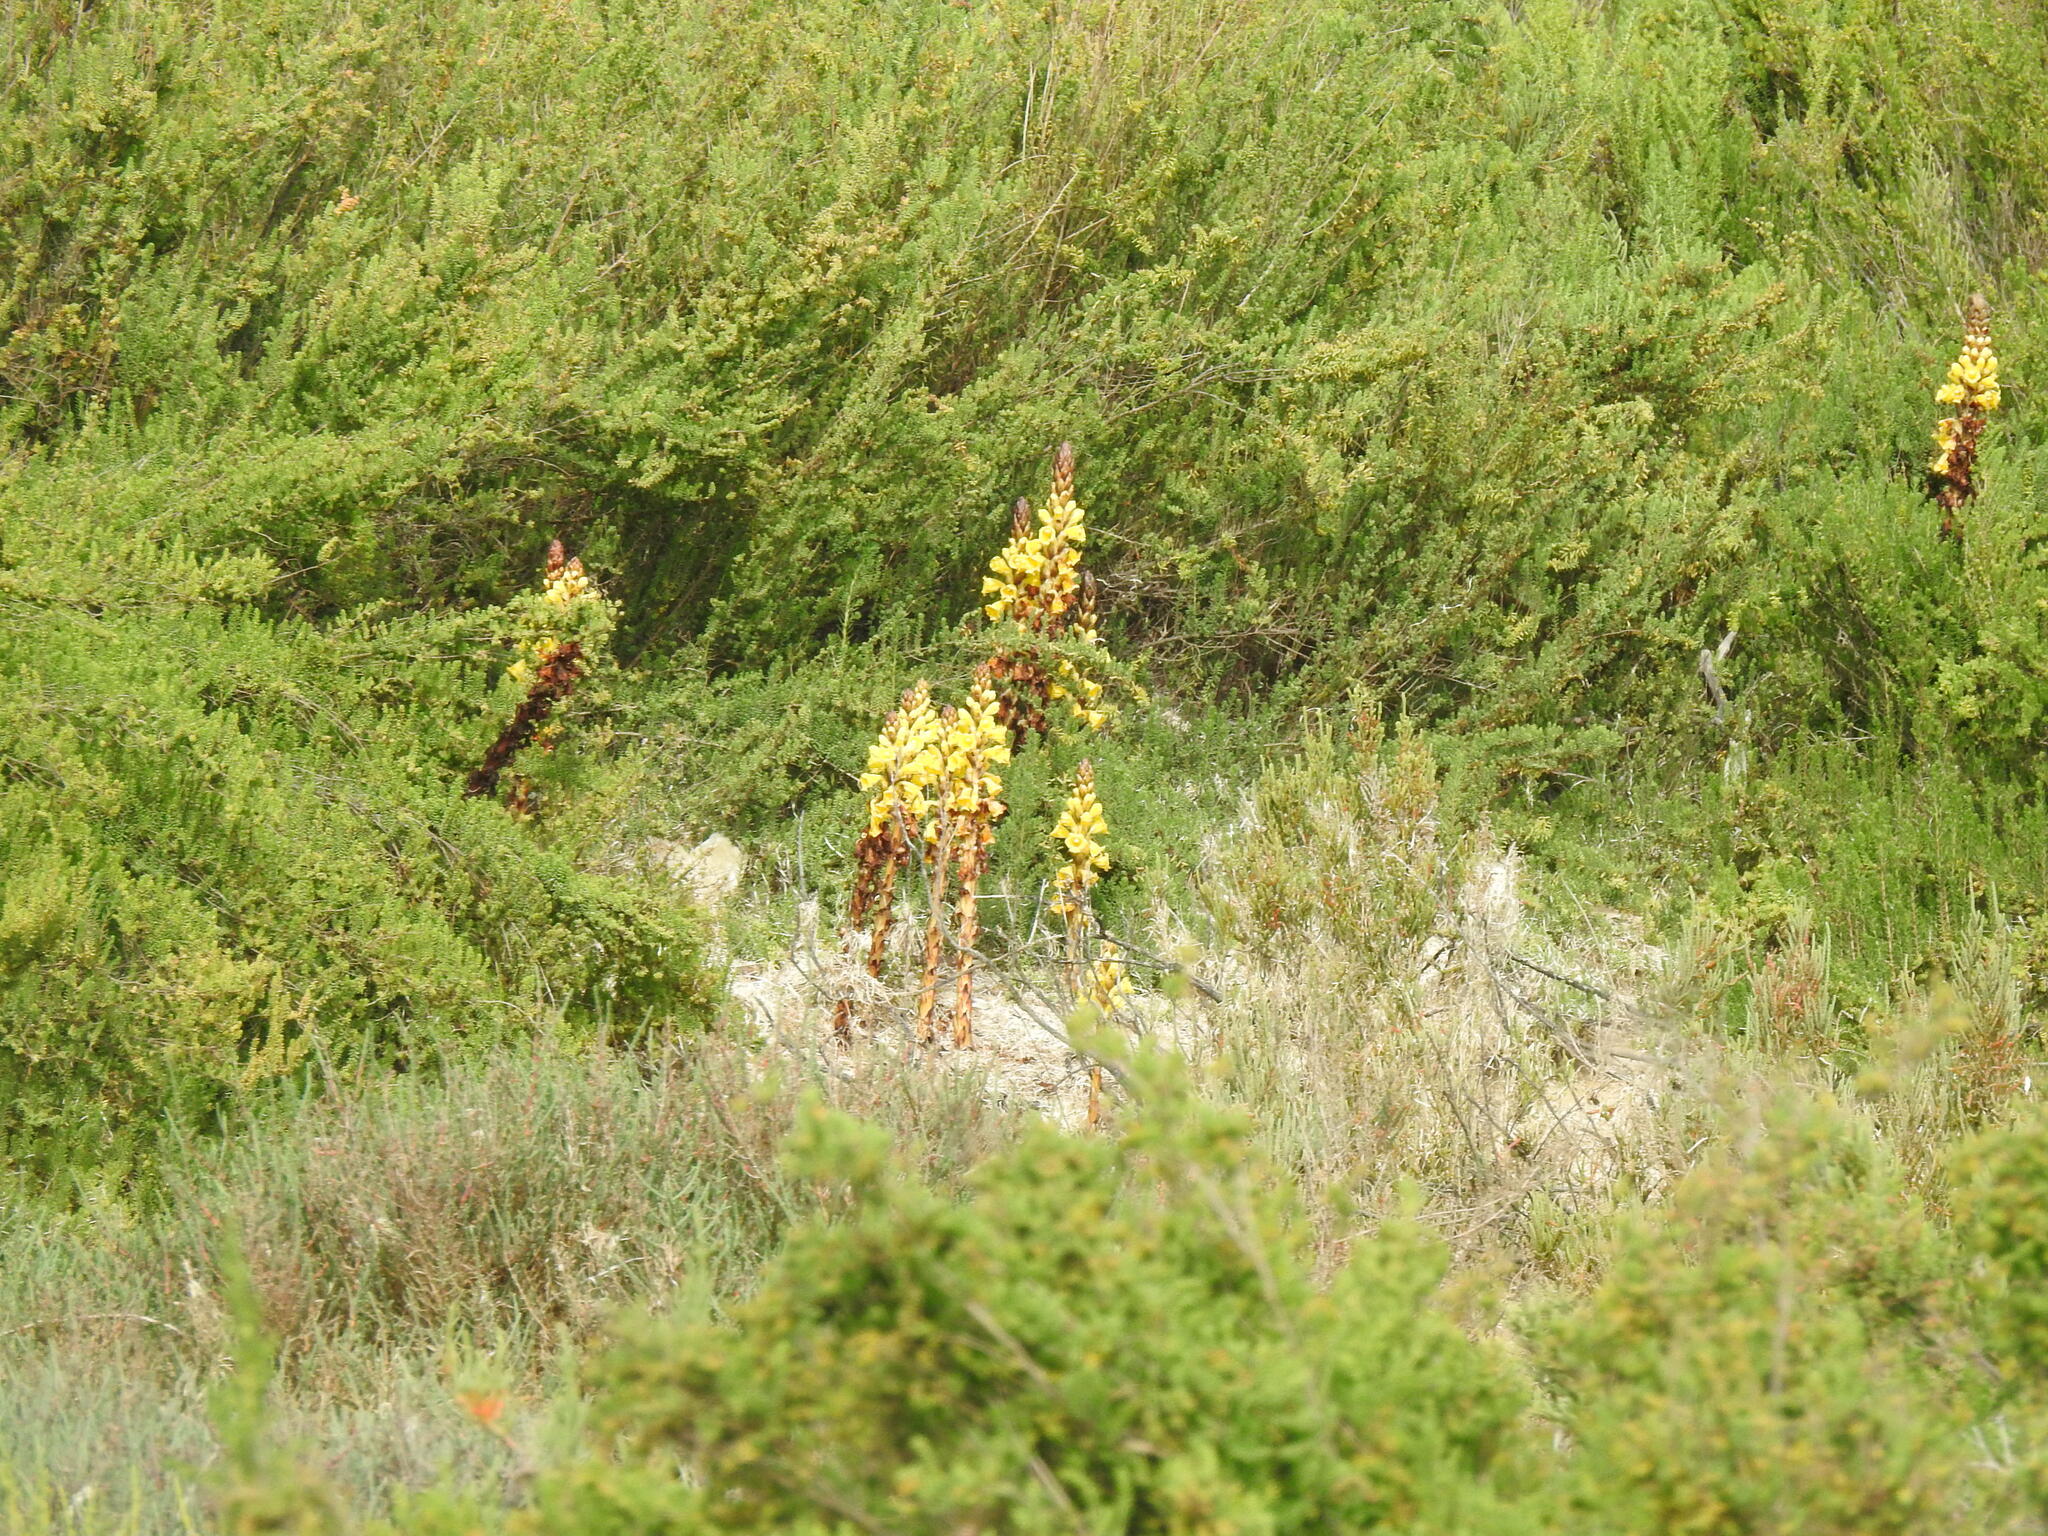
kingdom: Plantae
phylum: Tracheophyta
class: Magnoliopsida
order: Lamiales
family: Orobanchaceae
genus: Cistanche
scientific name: Cistanche phelypaea
